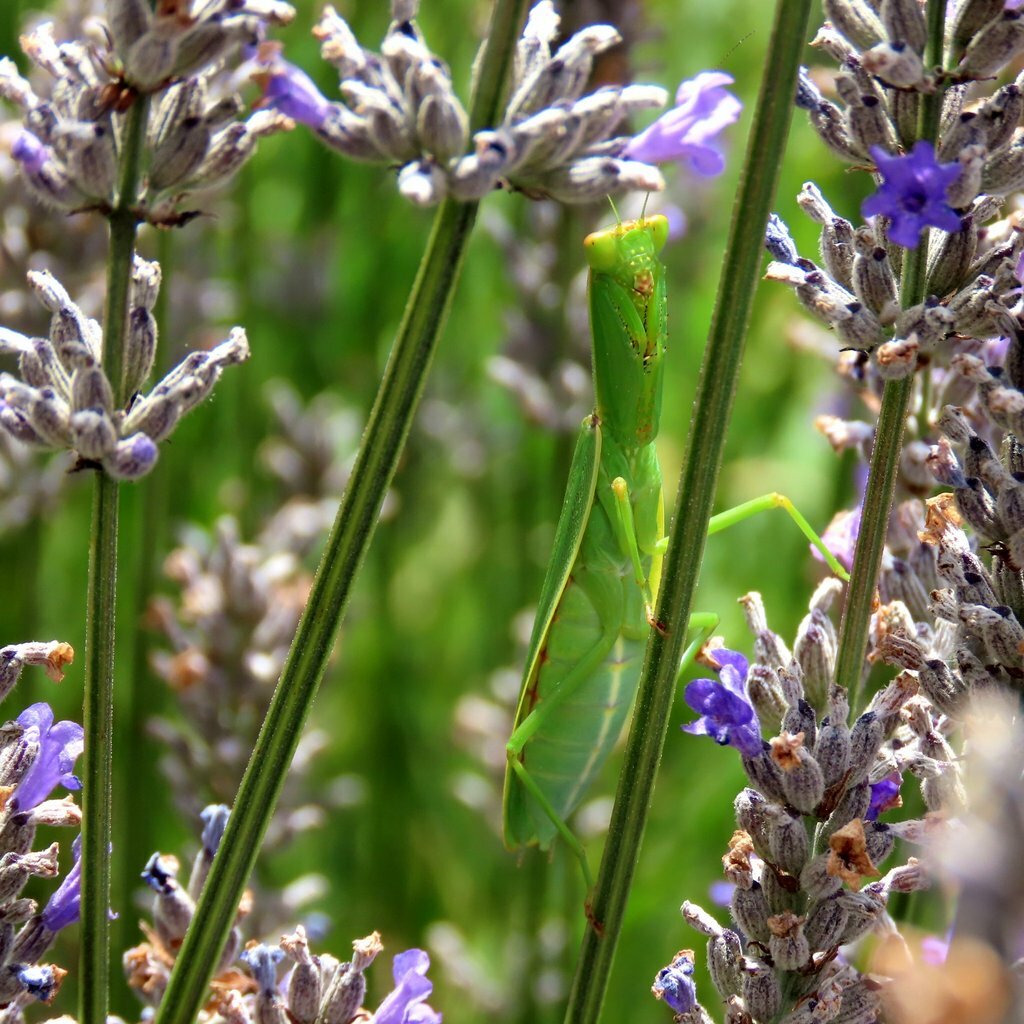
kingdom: Animalia
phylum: Arthropoda
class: Insecta
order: Mantodea
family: Mantidae
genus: Orthodera
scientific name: Orthodera ministralis
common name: Mantis
